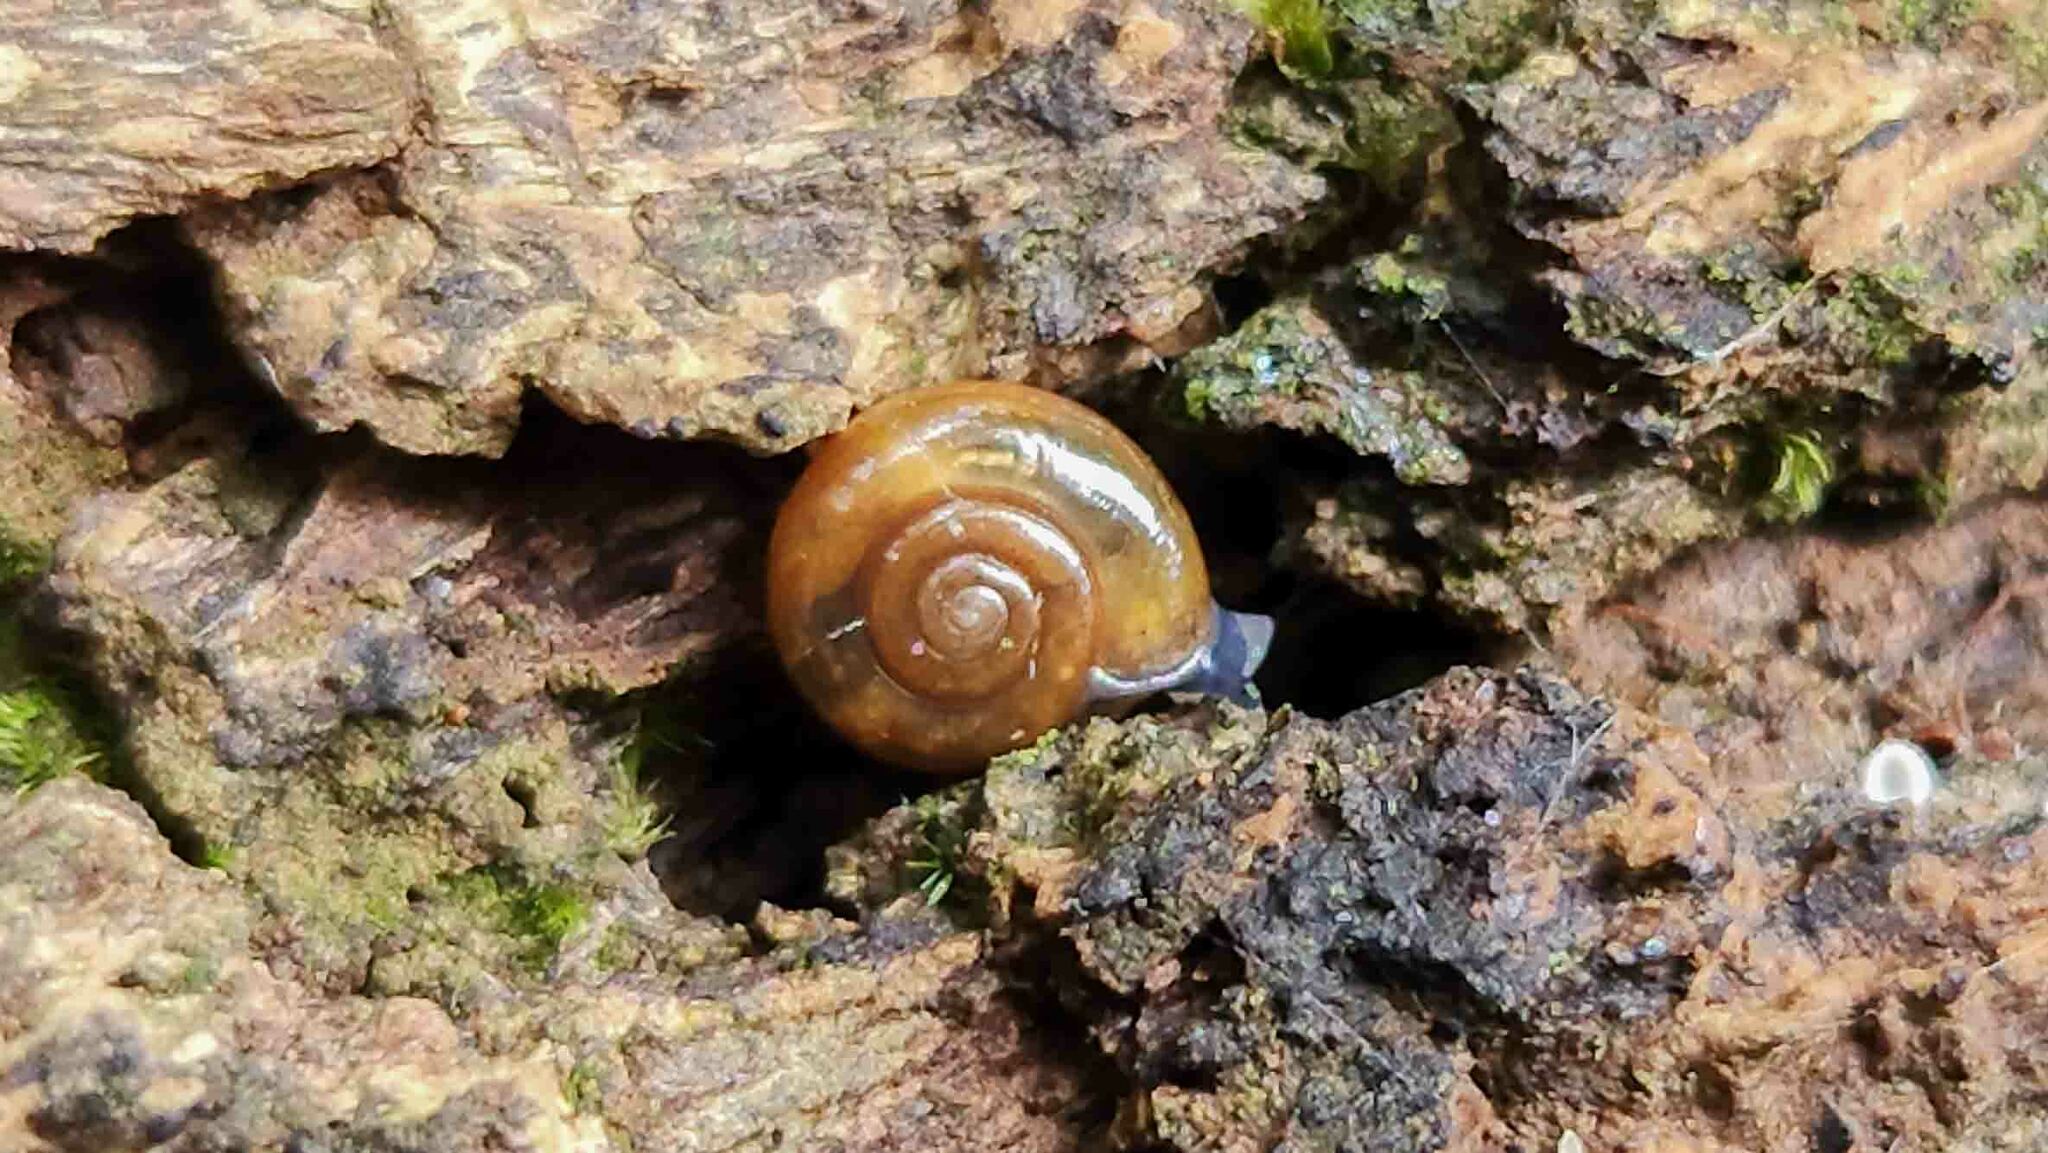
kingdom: Animalia
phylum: Mollusca
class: Gastropoda
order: Stylommatophora
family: Oxychilidae
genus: Oxychilus
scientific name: Oxychilus alliarius
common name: Garlic glass-snail
